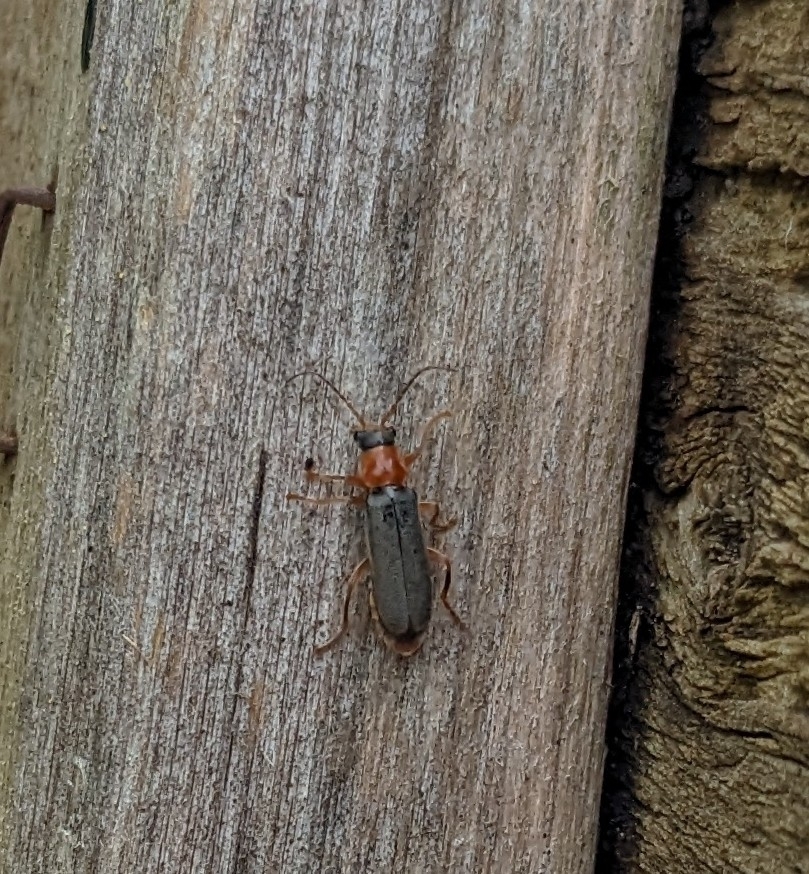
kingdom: Animalia
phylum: Arthropoda
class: Insecta
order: Coleoptera
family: Cantharidae
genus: Cantharis
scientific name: Cantharis lateralis
